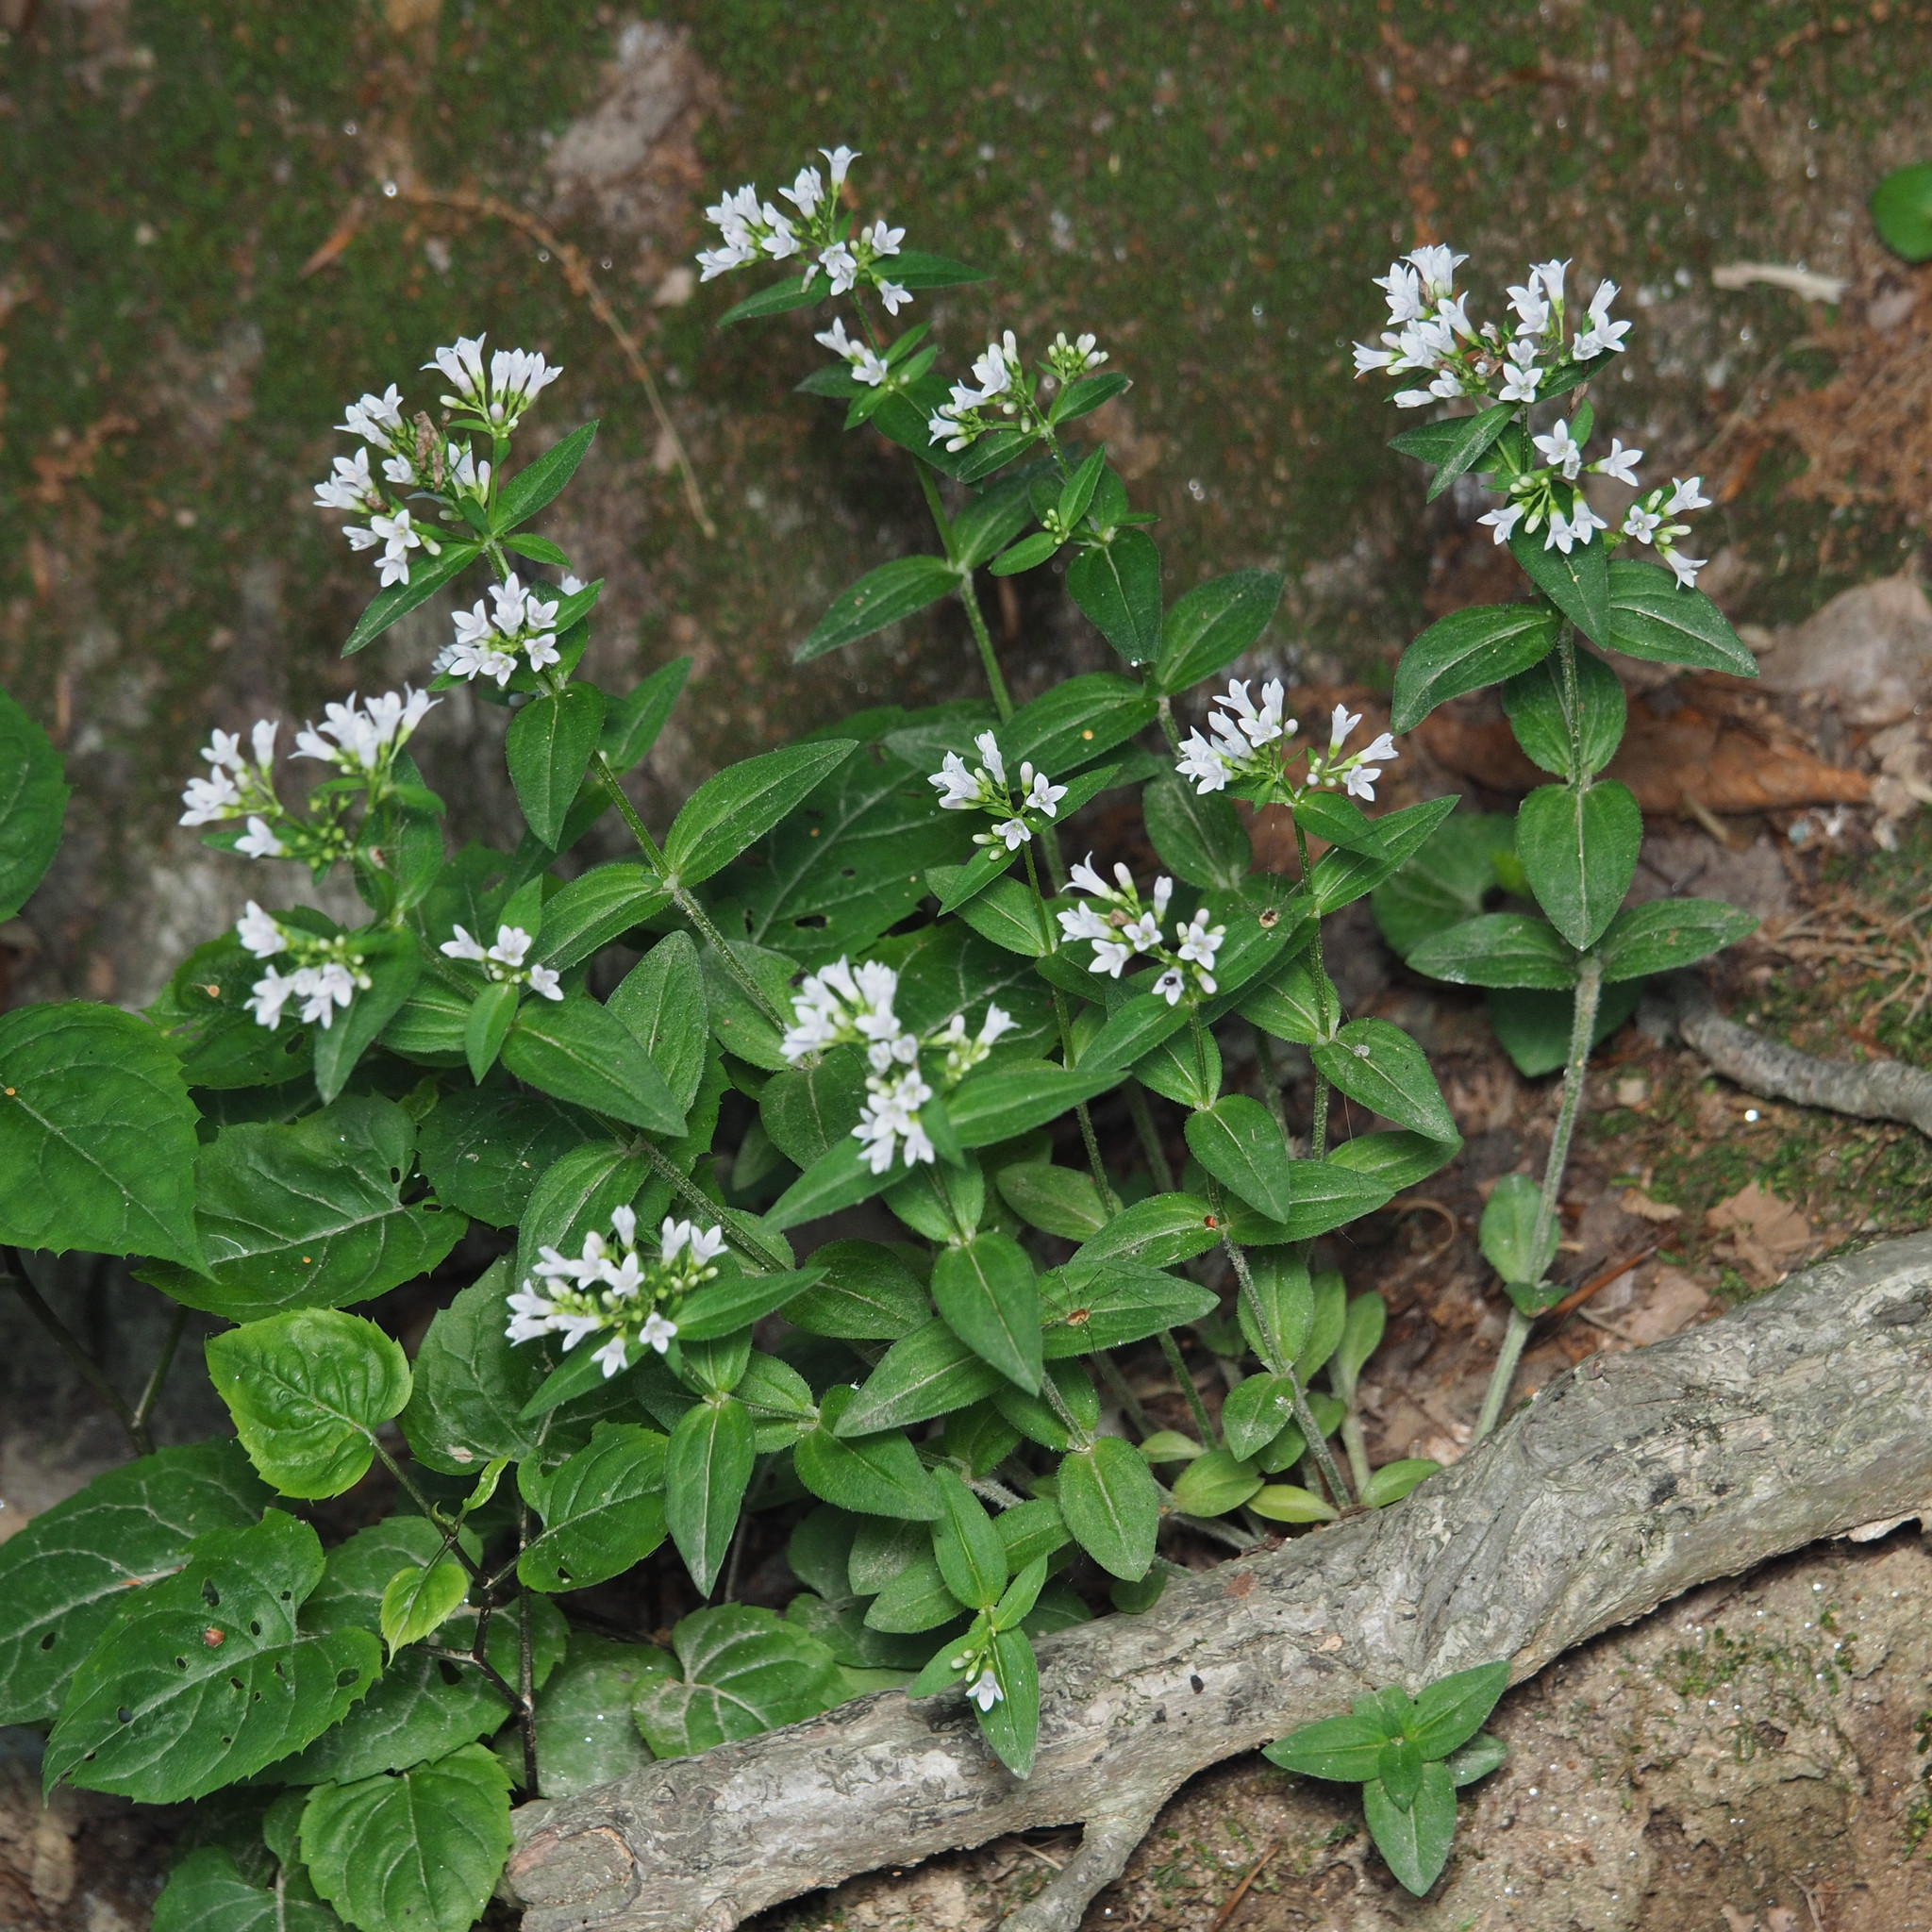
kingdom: Plantae
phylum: Tracheophyta
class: Magnoliopsida
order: Gentianales
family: Rubiaceae
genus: Houstonia
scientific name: Houstonia purpurea
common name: Summer bluet
